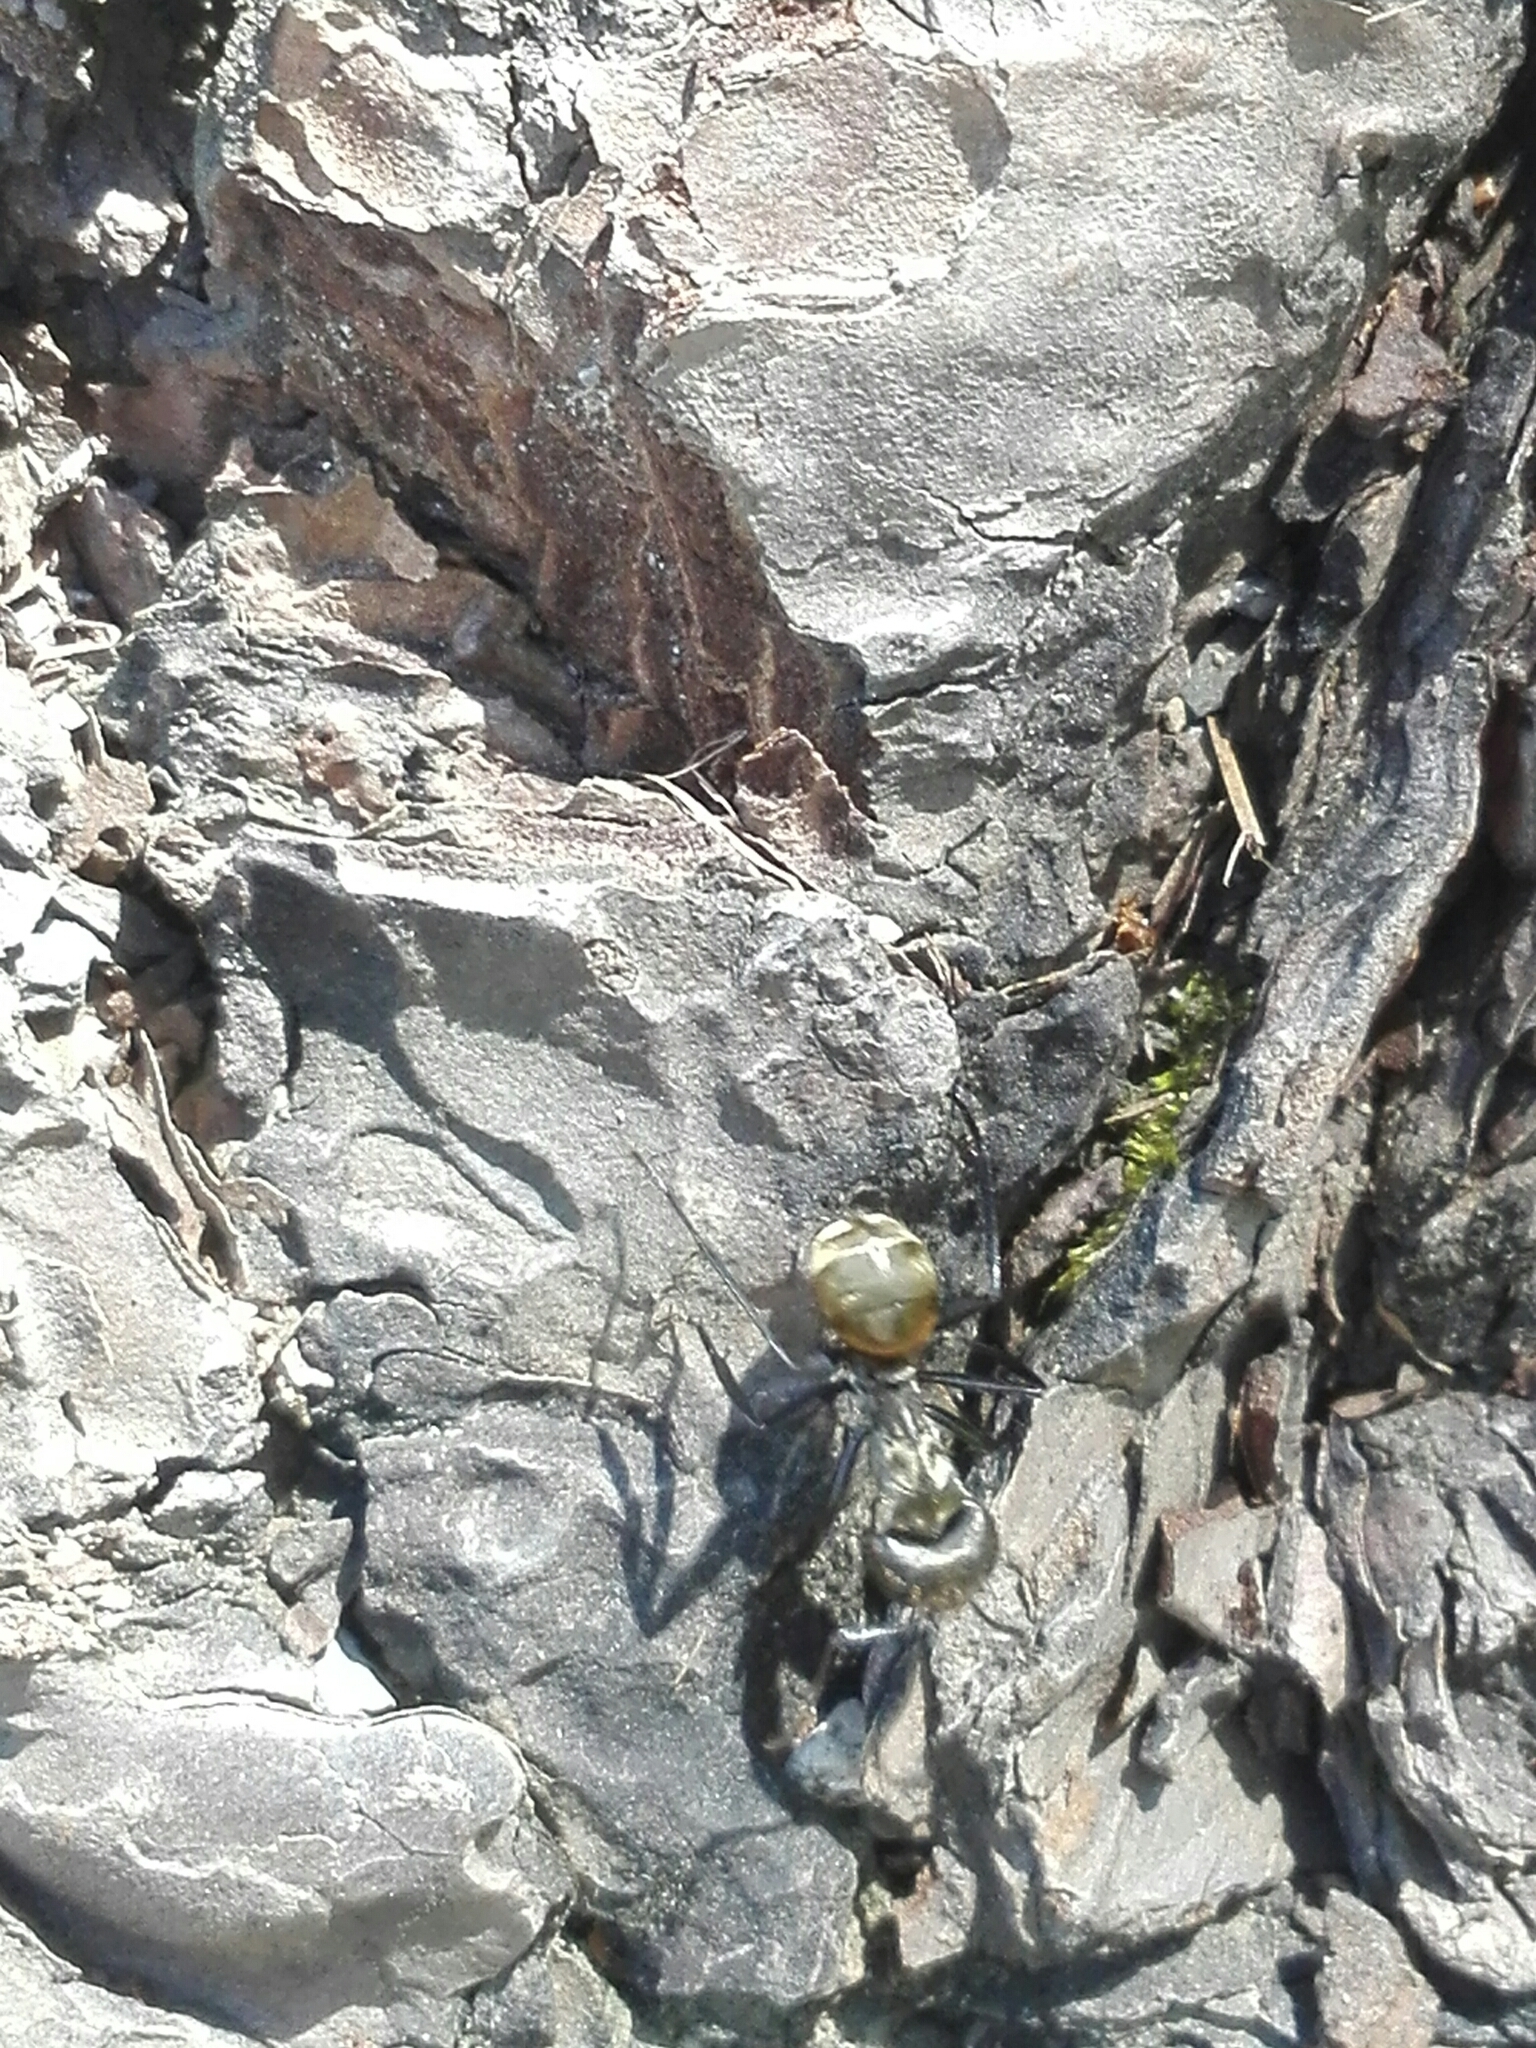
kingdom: Animalia
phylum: Arthropoda
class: Insecta
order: Hymenoptera
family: Formicidae
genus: Camponotus
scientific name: Camponotus sericeiventris
